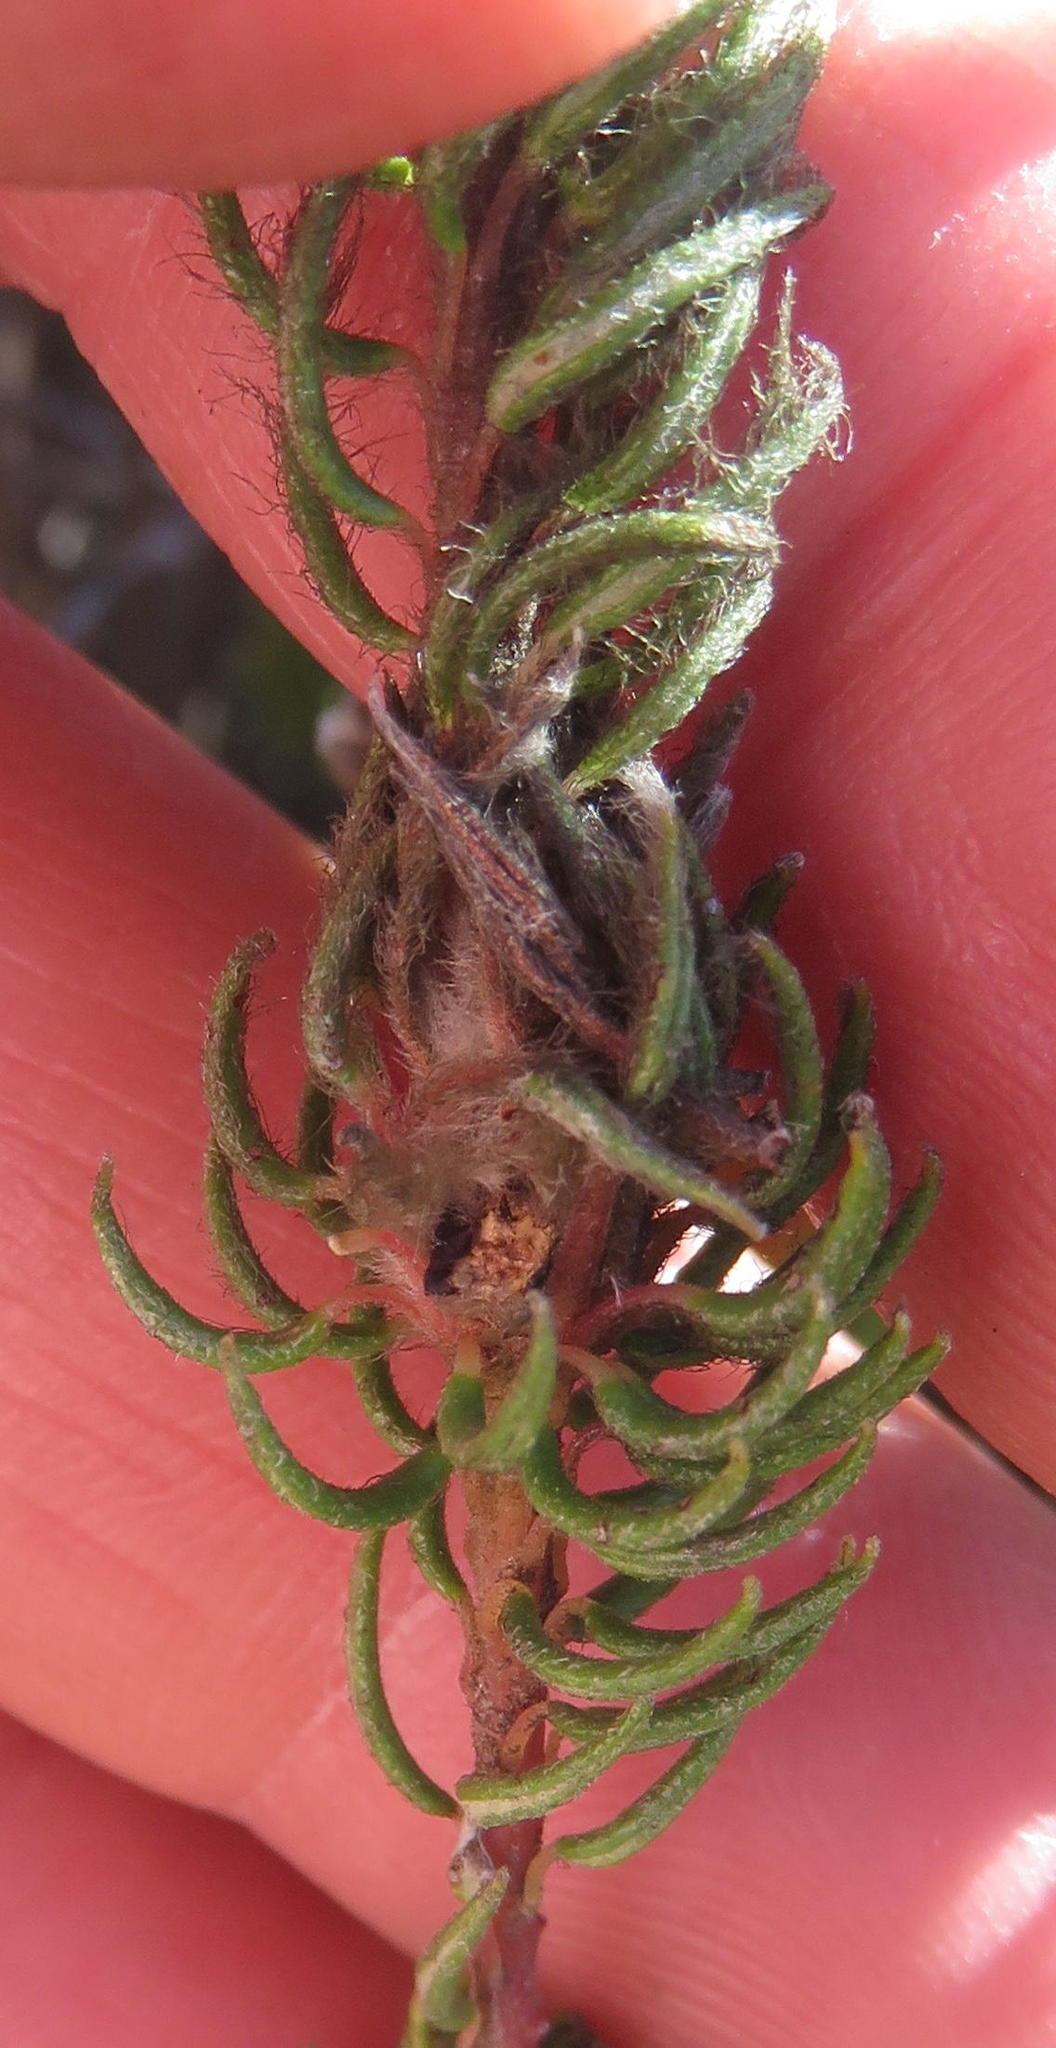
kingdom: Plantae
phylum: Tracheophyta
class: Magnoliopsida
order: Rosales
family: Rhamnaceae
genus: Phylica
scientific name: Phylica meyeri
